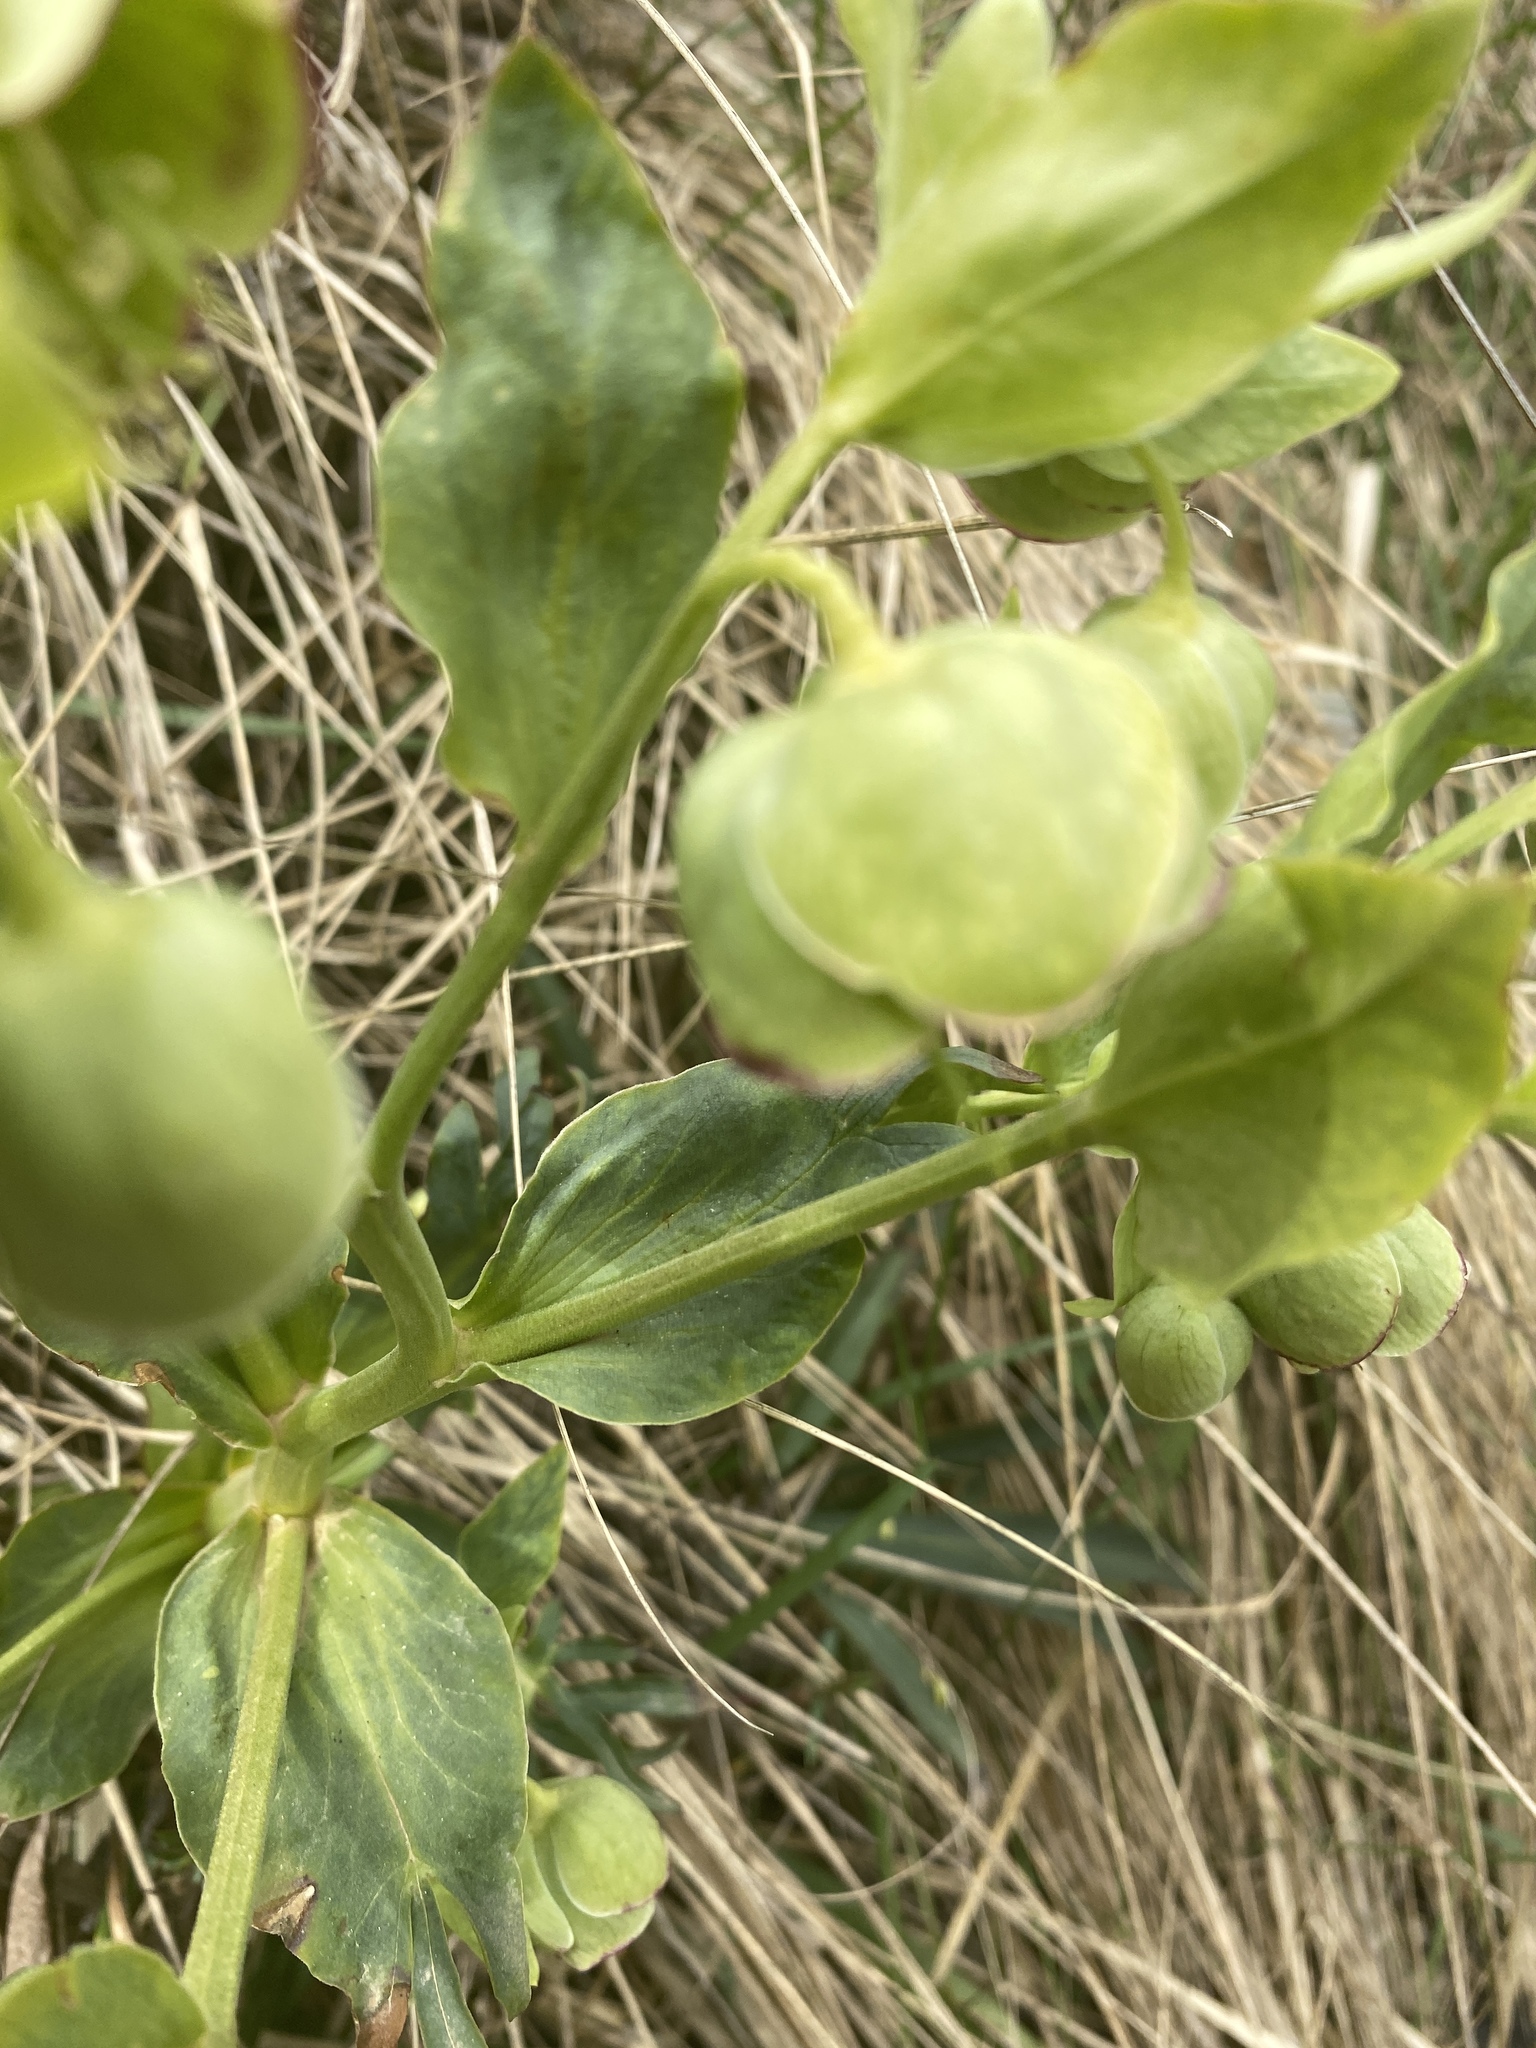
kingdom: Plantae
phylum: Tracheophyta
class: Magnoliopsida
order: Ranunculales
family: Ranunculaceae
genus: Helleborus
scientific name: Helleborus foetidus
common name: Stinking hellebore
